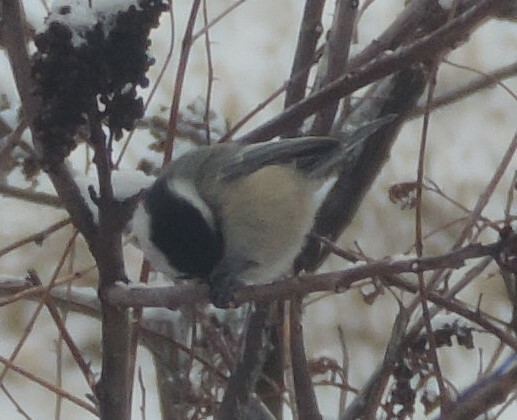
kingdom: Animalia
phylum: Chordata
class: Aves
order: Passeriformes
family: Paridae
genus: Poecile
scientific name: Poecile atricapillus
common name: Black-capped chickadee
